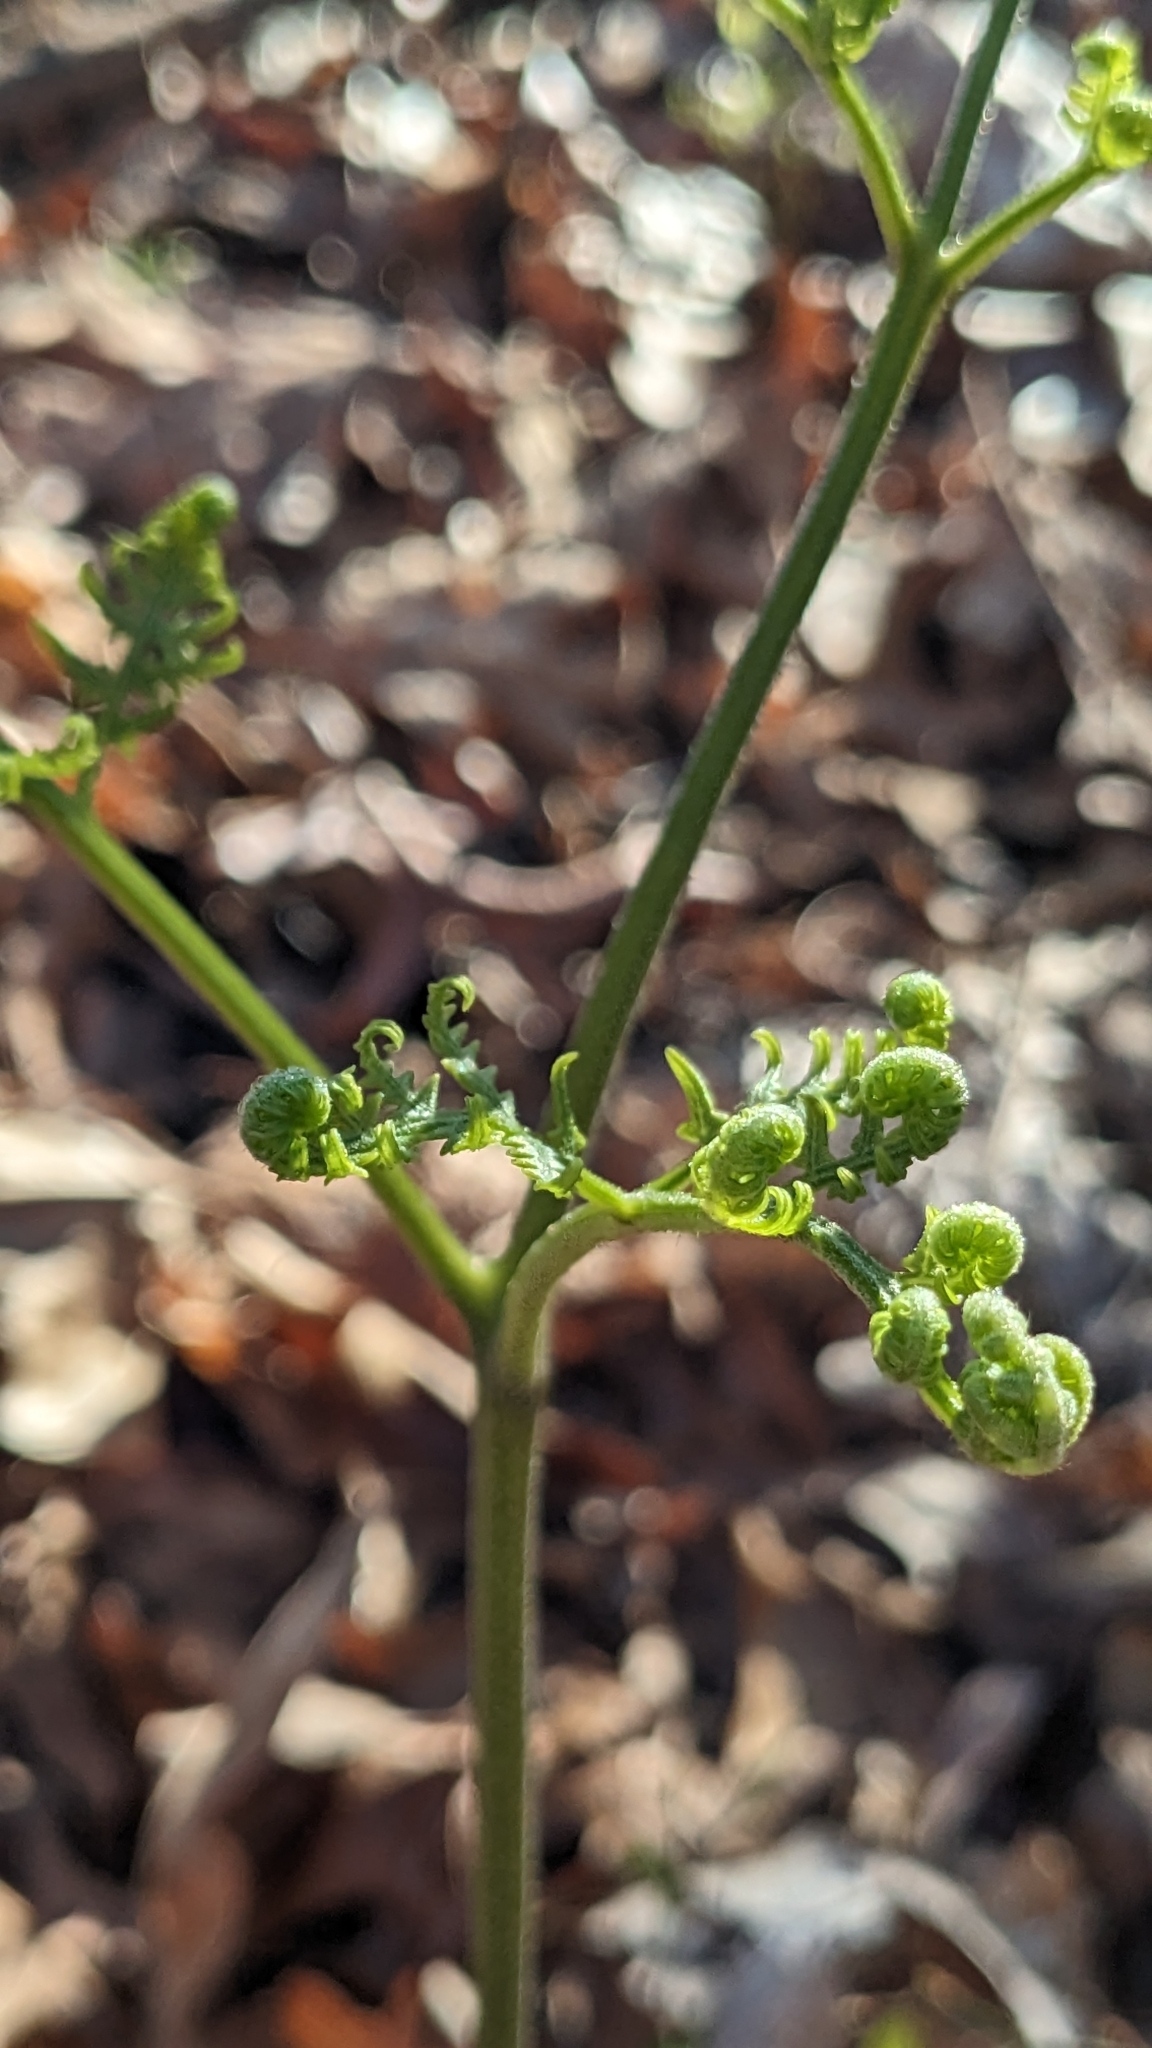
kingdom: Plantae
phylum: Tracheophyta
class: Polypodiopsida
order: Polypodiales
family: Dennstaedtiaceae
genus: Pteridium
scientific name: Pteridium aquilinum
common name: Bracken
